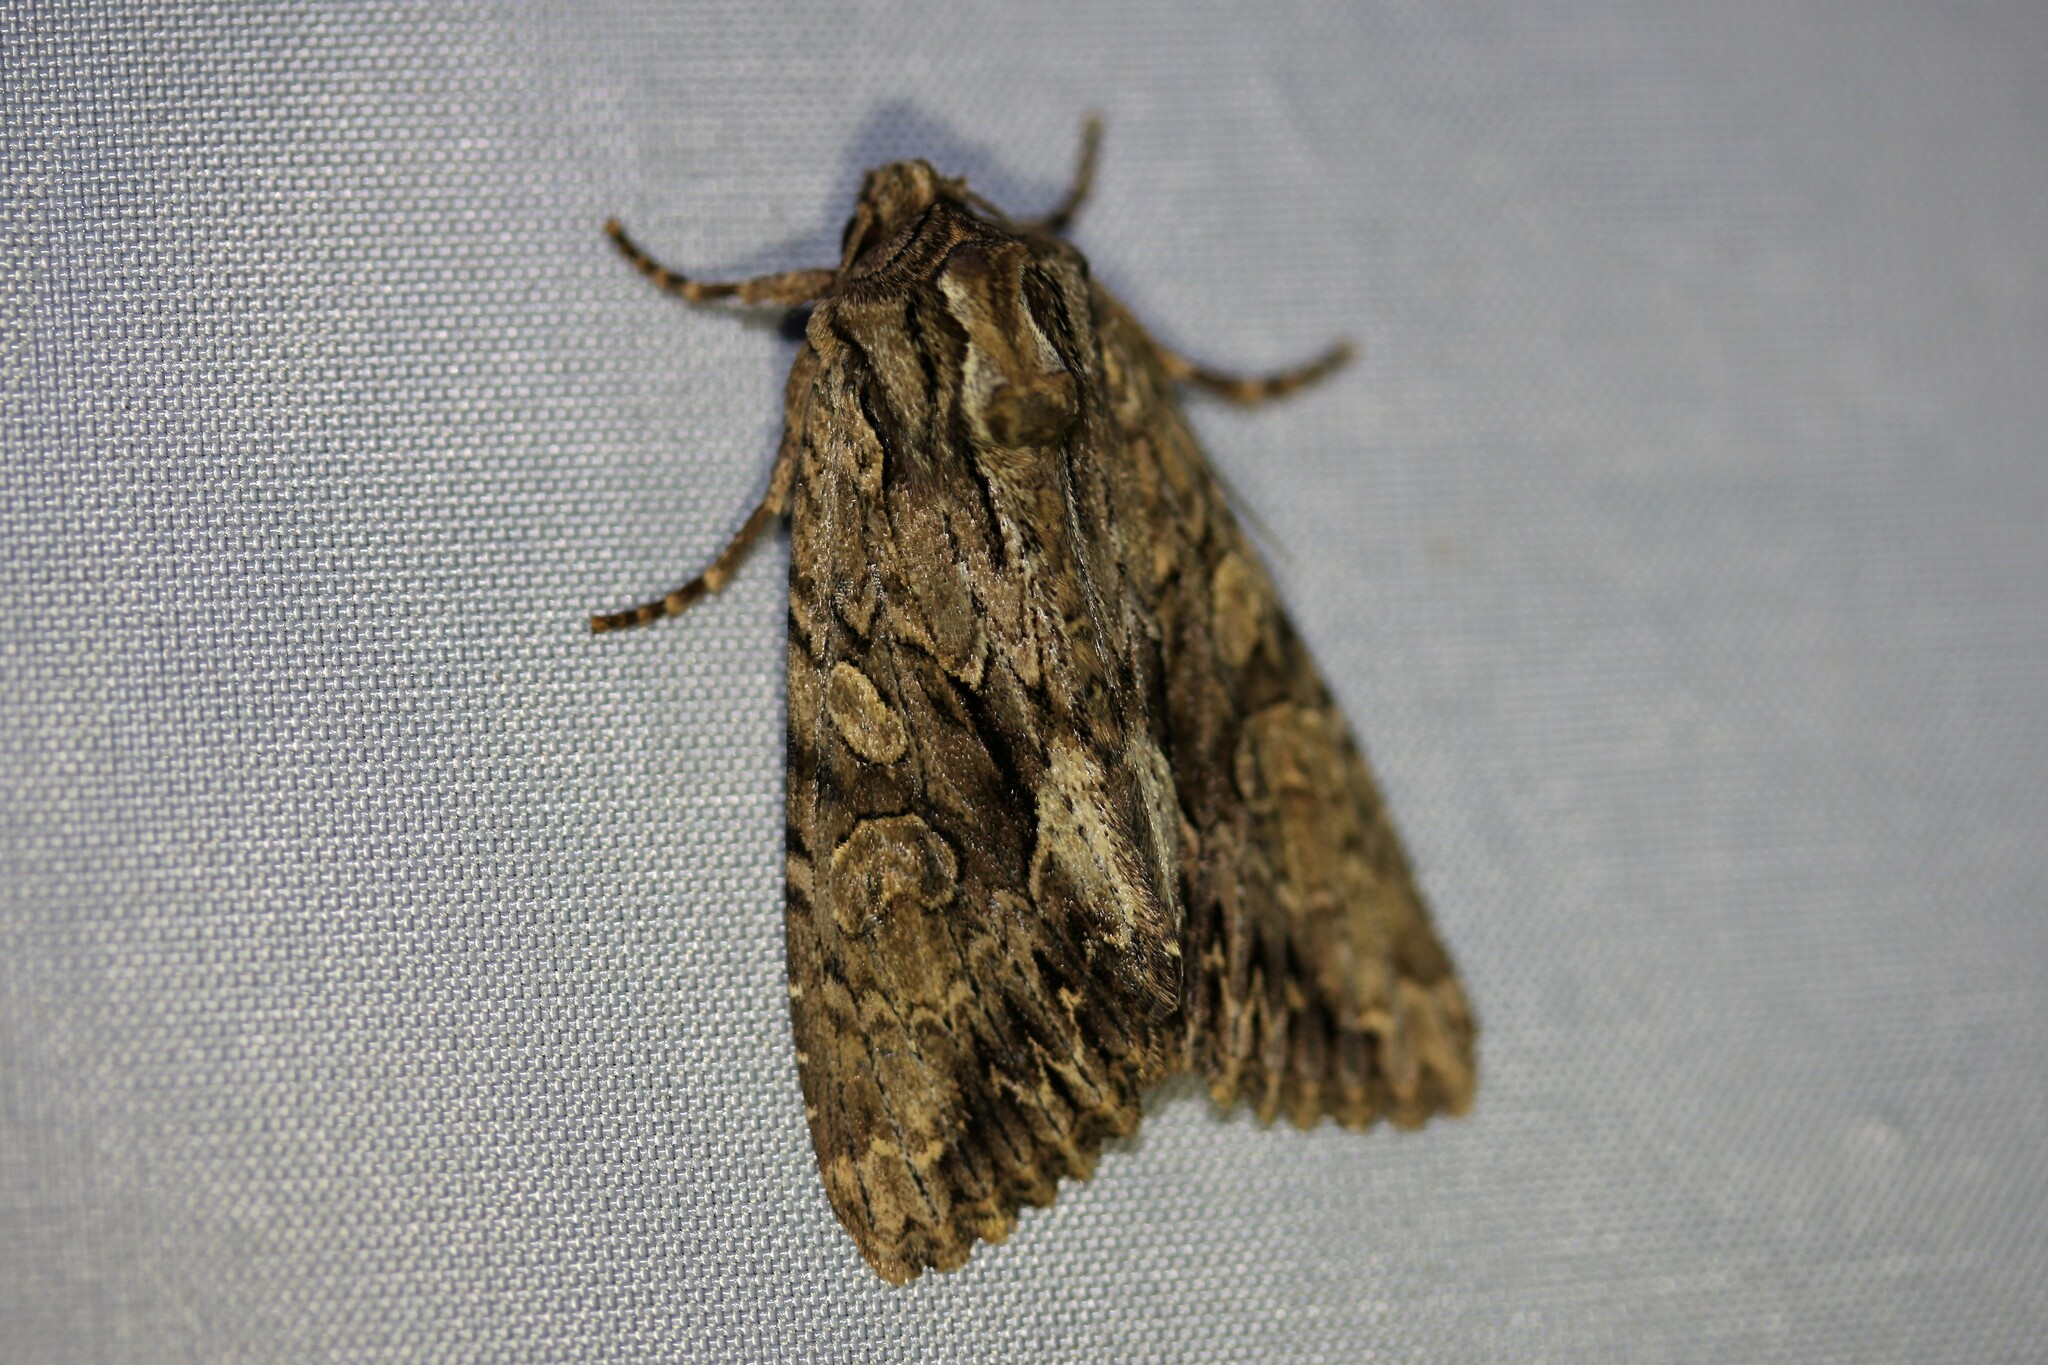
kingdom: Animalia
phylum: Arthropoda
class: Insecta
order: Lepidoptera
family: Noctuidae
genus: Apamea
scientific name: Apamea monoglypha
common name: Dark arches
